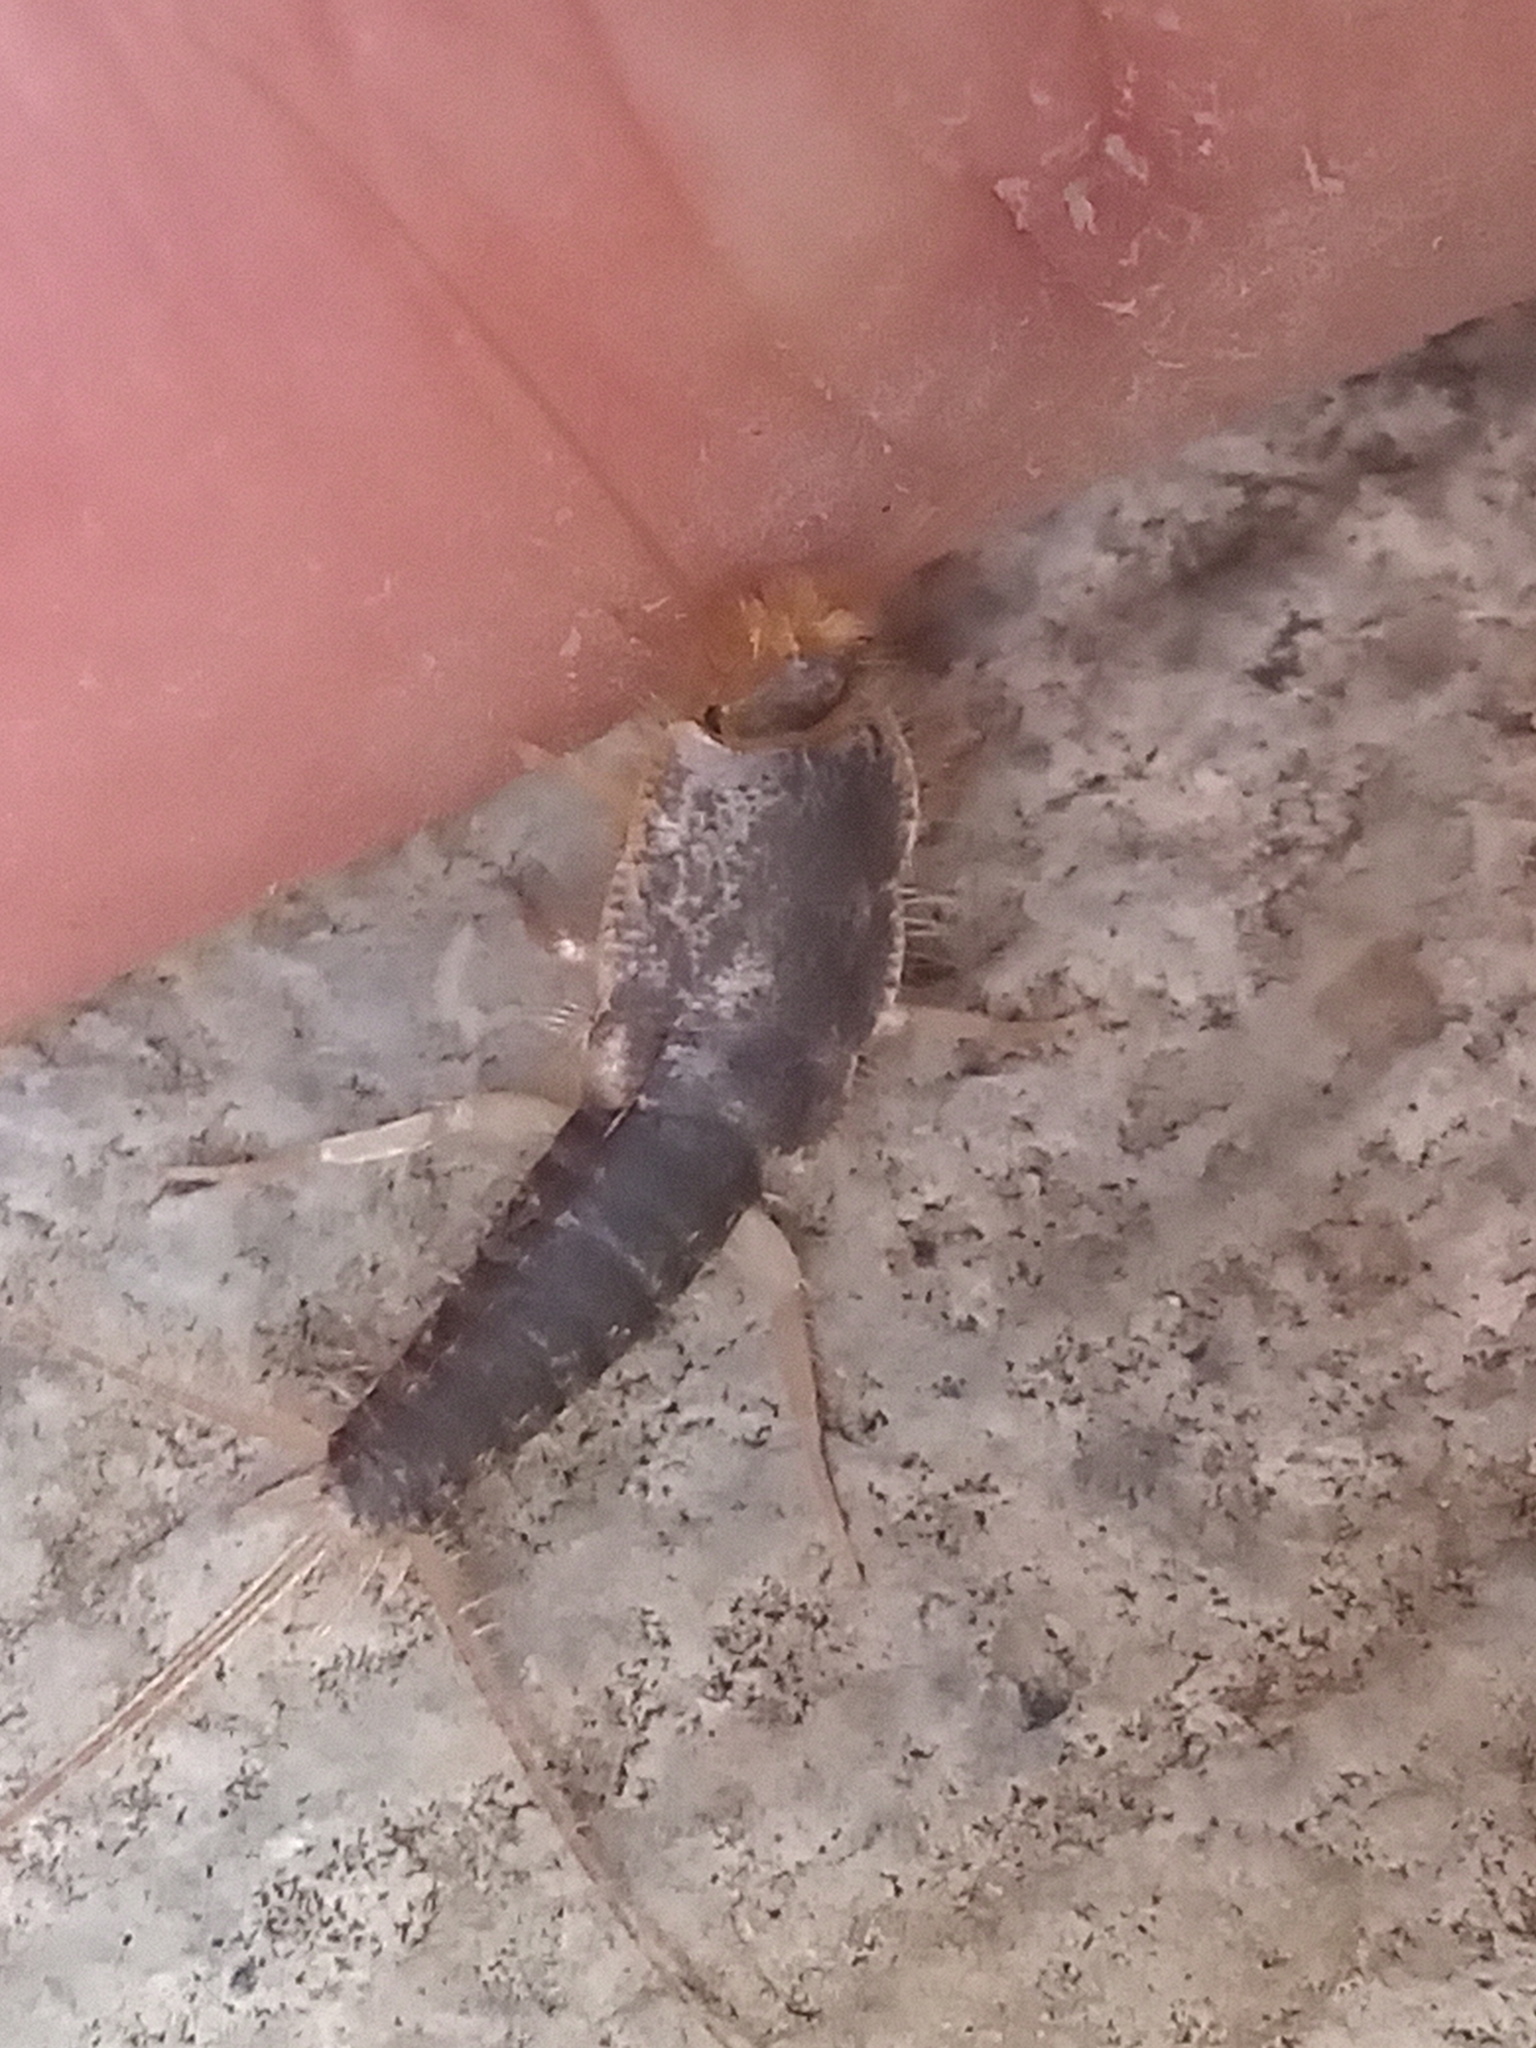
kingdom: Animalia
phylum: Arthropoda
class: Insecta
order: Zygentoma
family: Lepismatidae
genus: Ctenolepisma
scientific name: Ctenolepisma longicaudatum
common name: Silverfish
